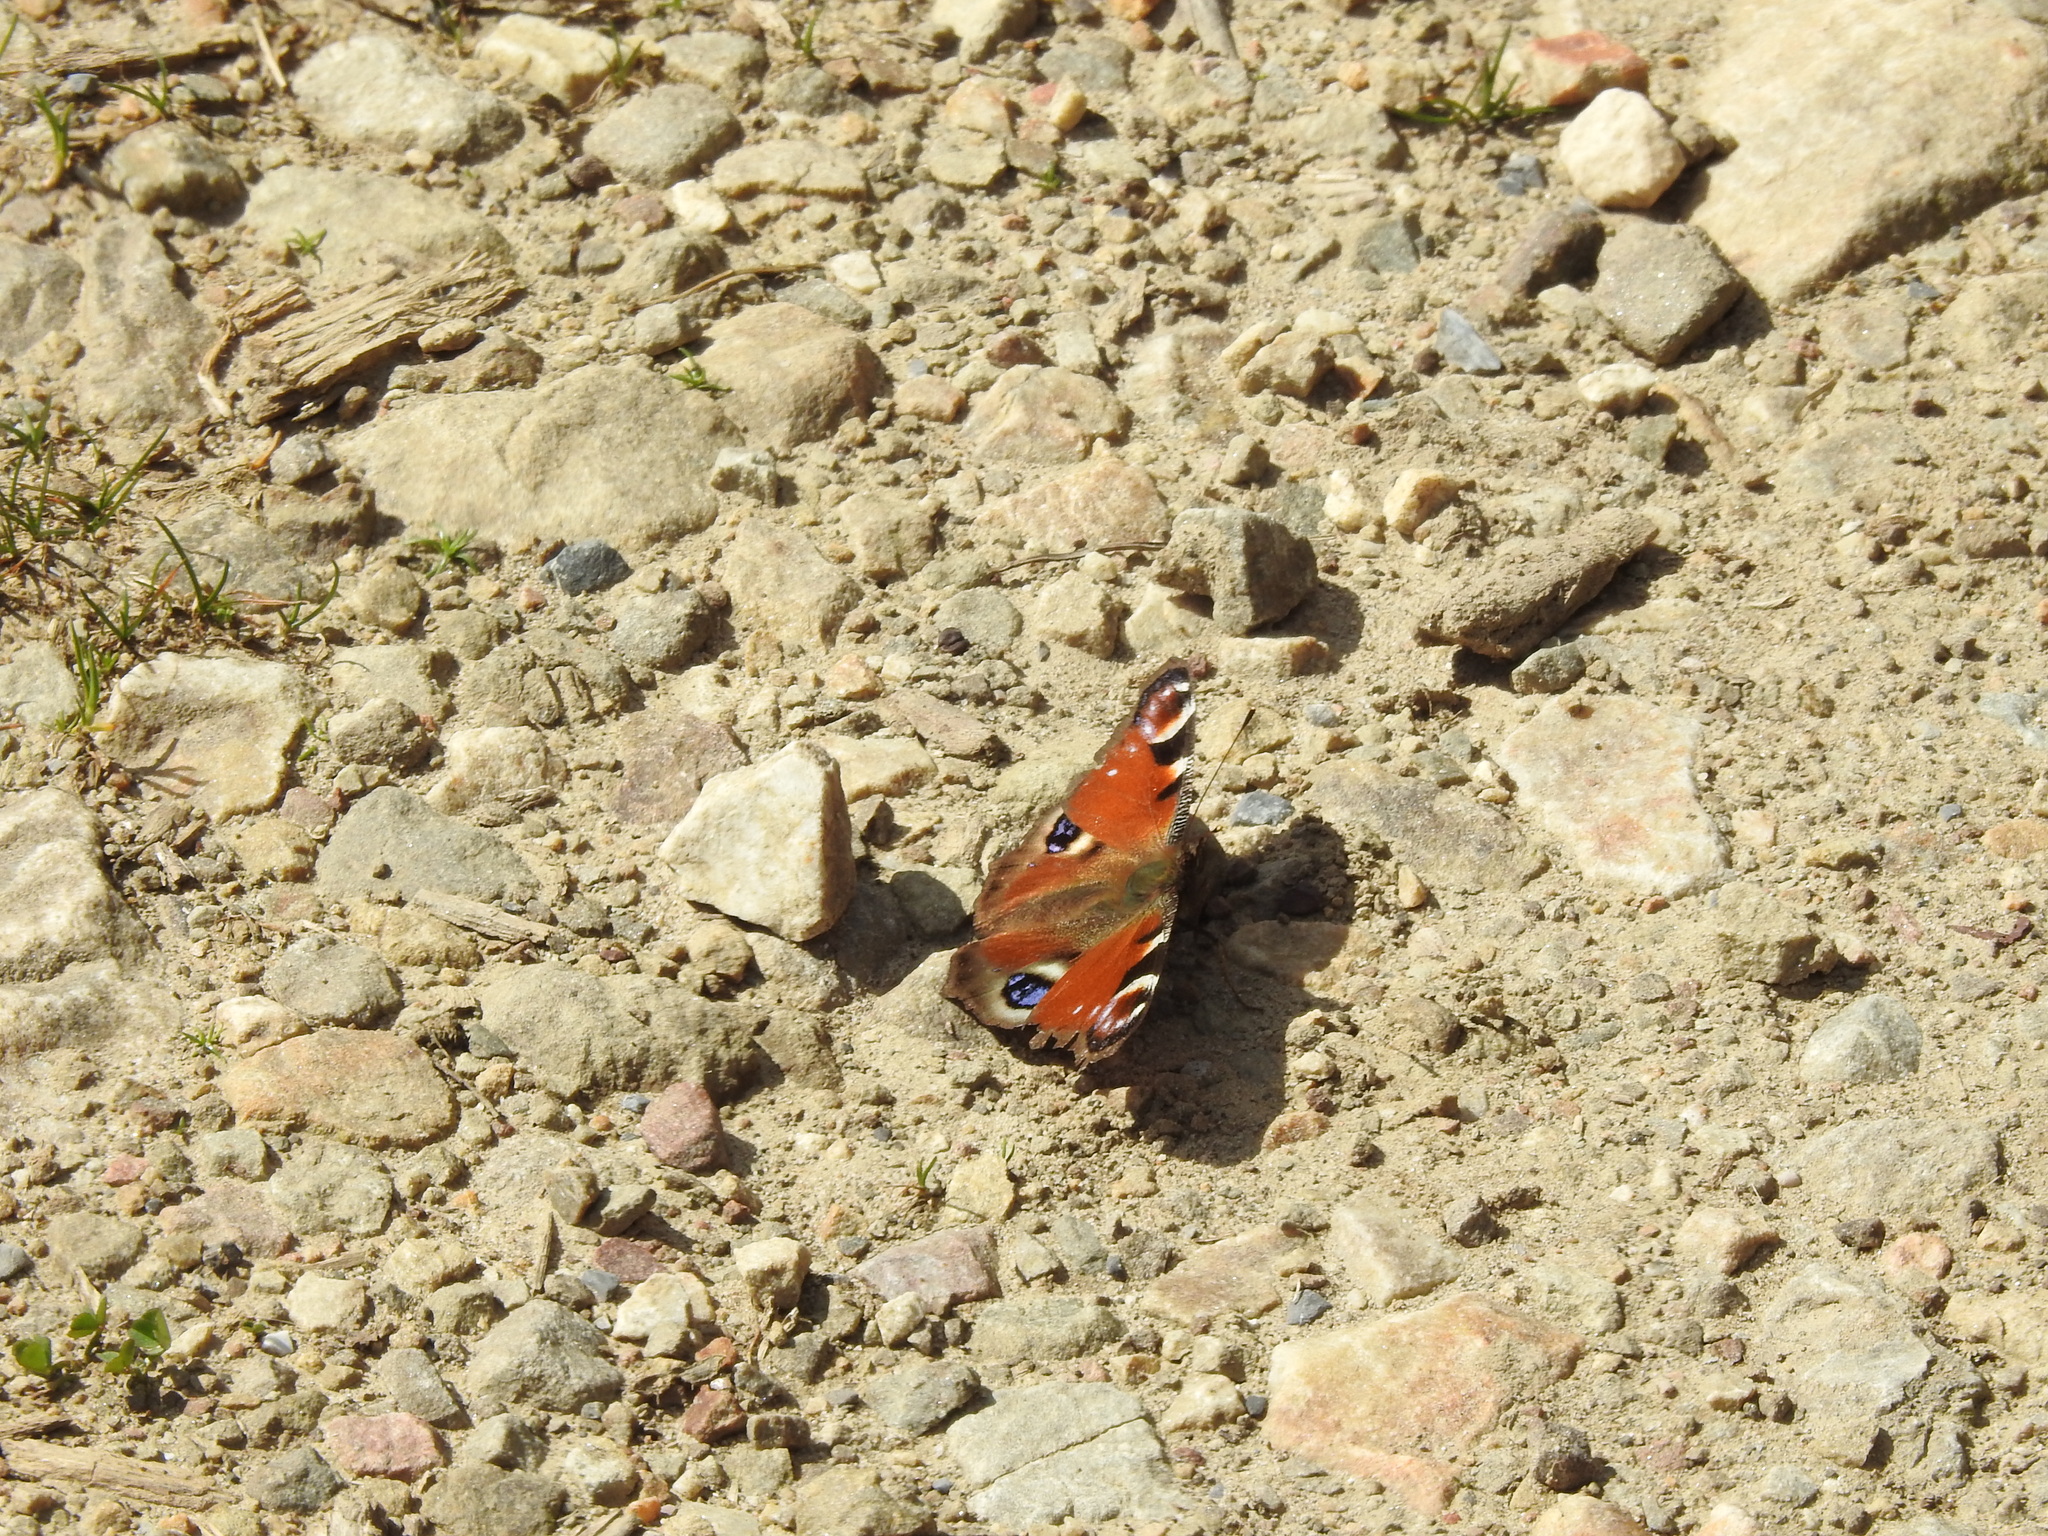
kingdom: Animalia
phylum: Arthropoda
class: Insecta
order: Lepidoptera
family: Nymphalidae
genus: Aglais
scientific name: Aglais io
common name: Peacock
